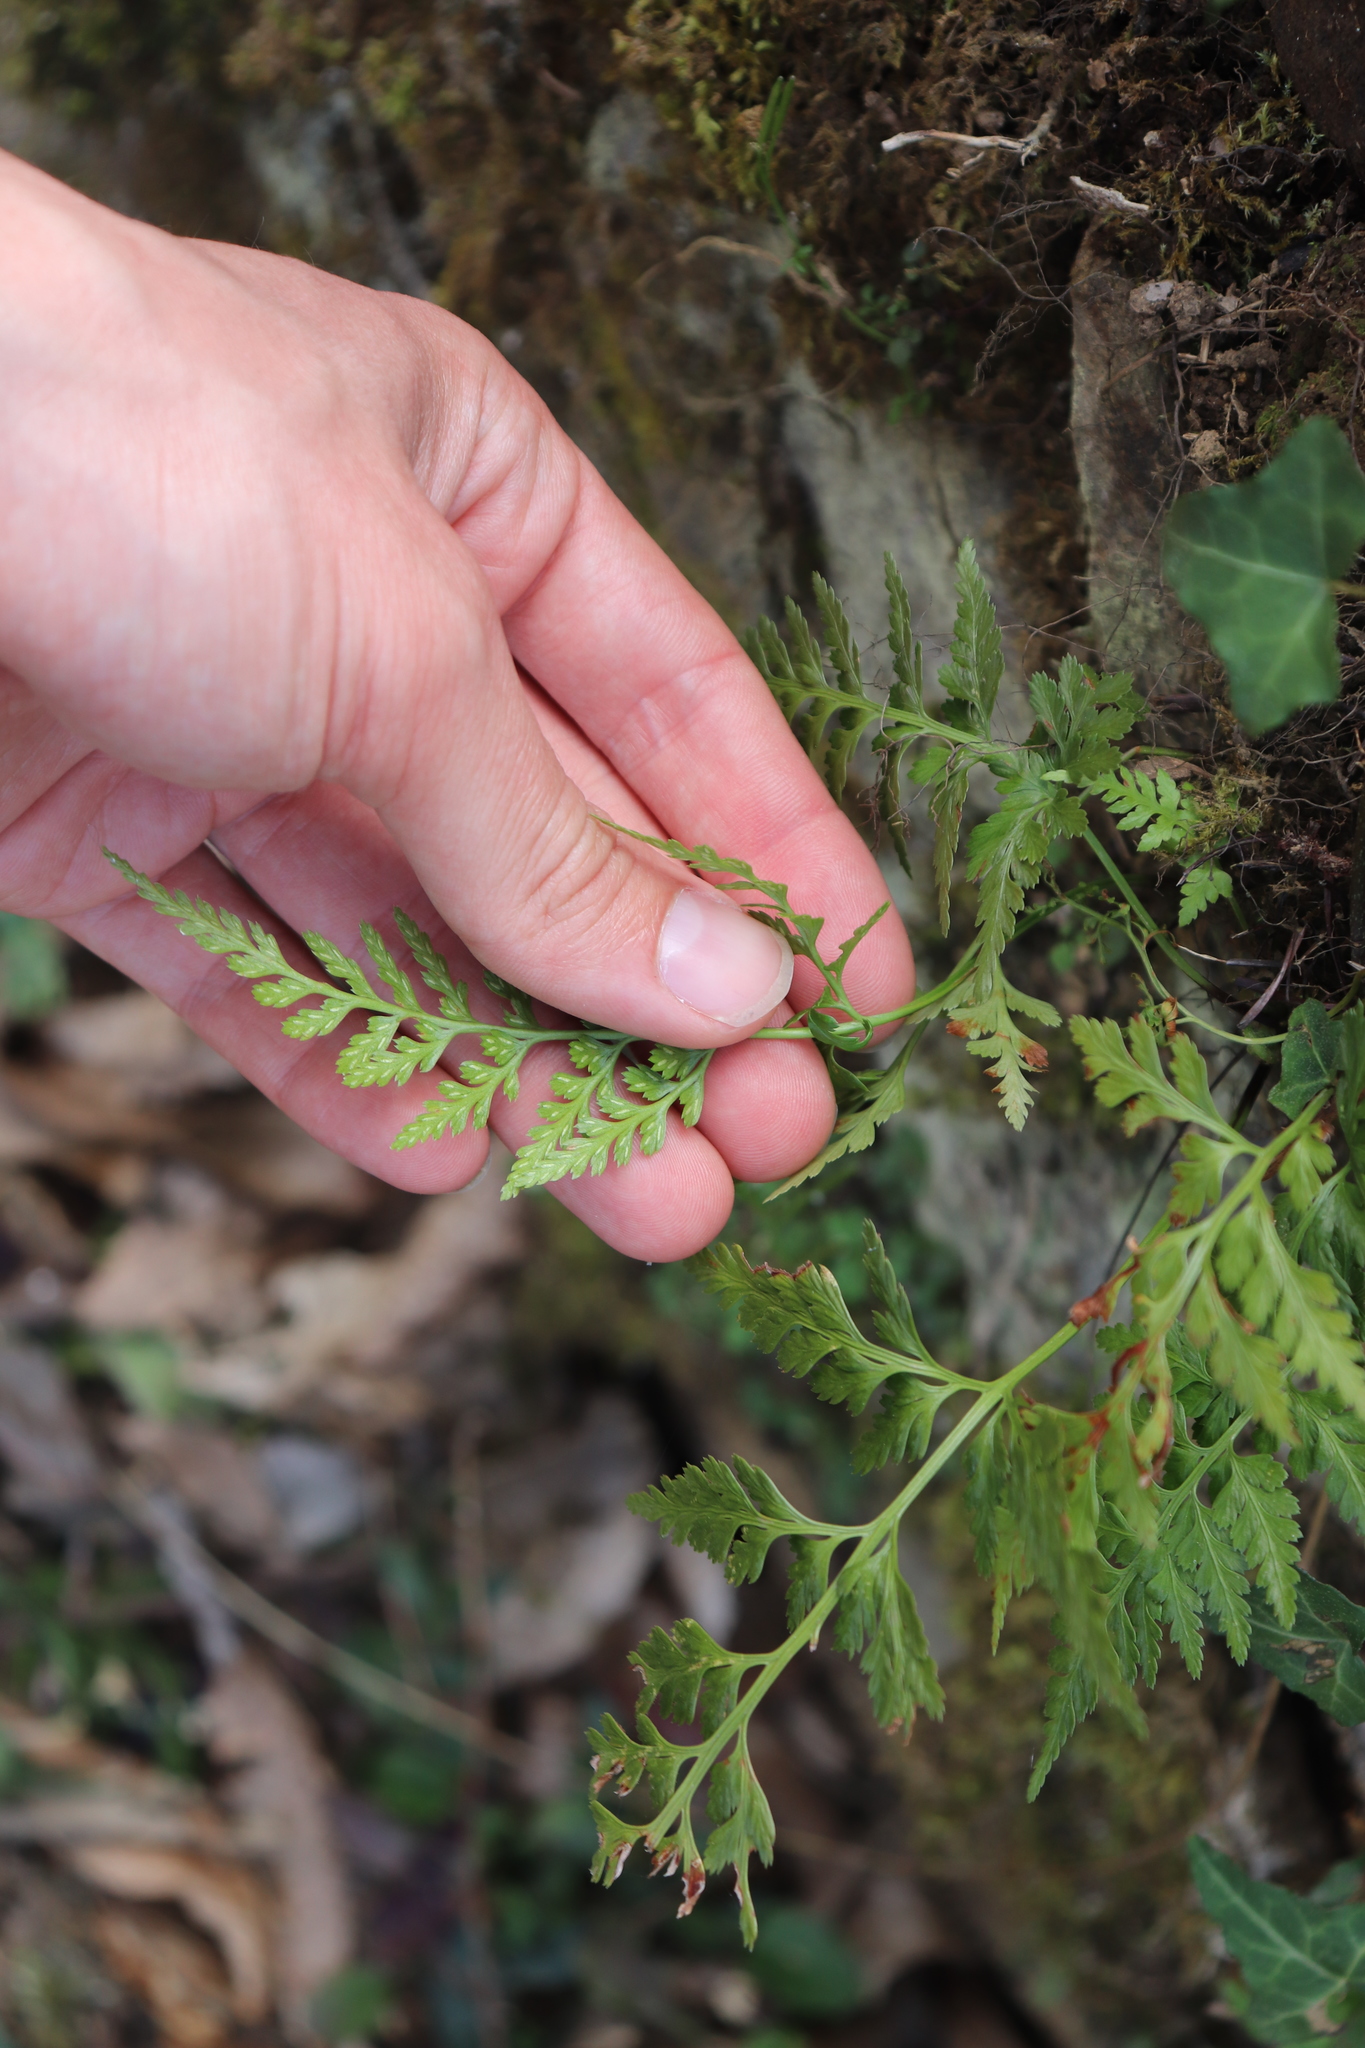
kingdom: Plantae
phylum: Tracheophyta
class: Polypodiopsida
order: Polypodiales
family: Aspleniaceae
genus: Asplenium
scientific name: Asplenium adiantum-nigrum
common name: Black spleenwort
